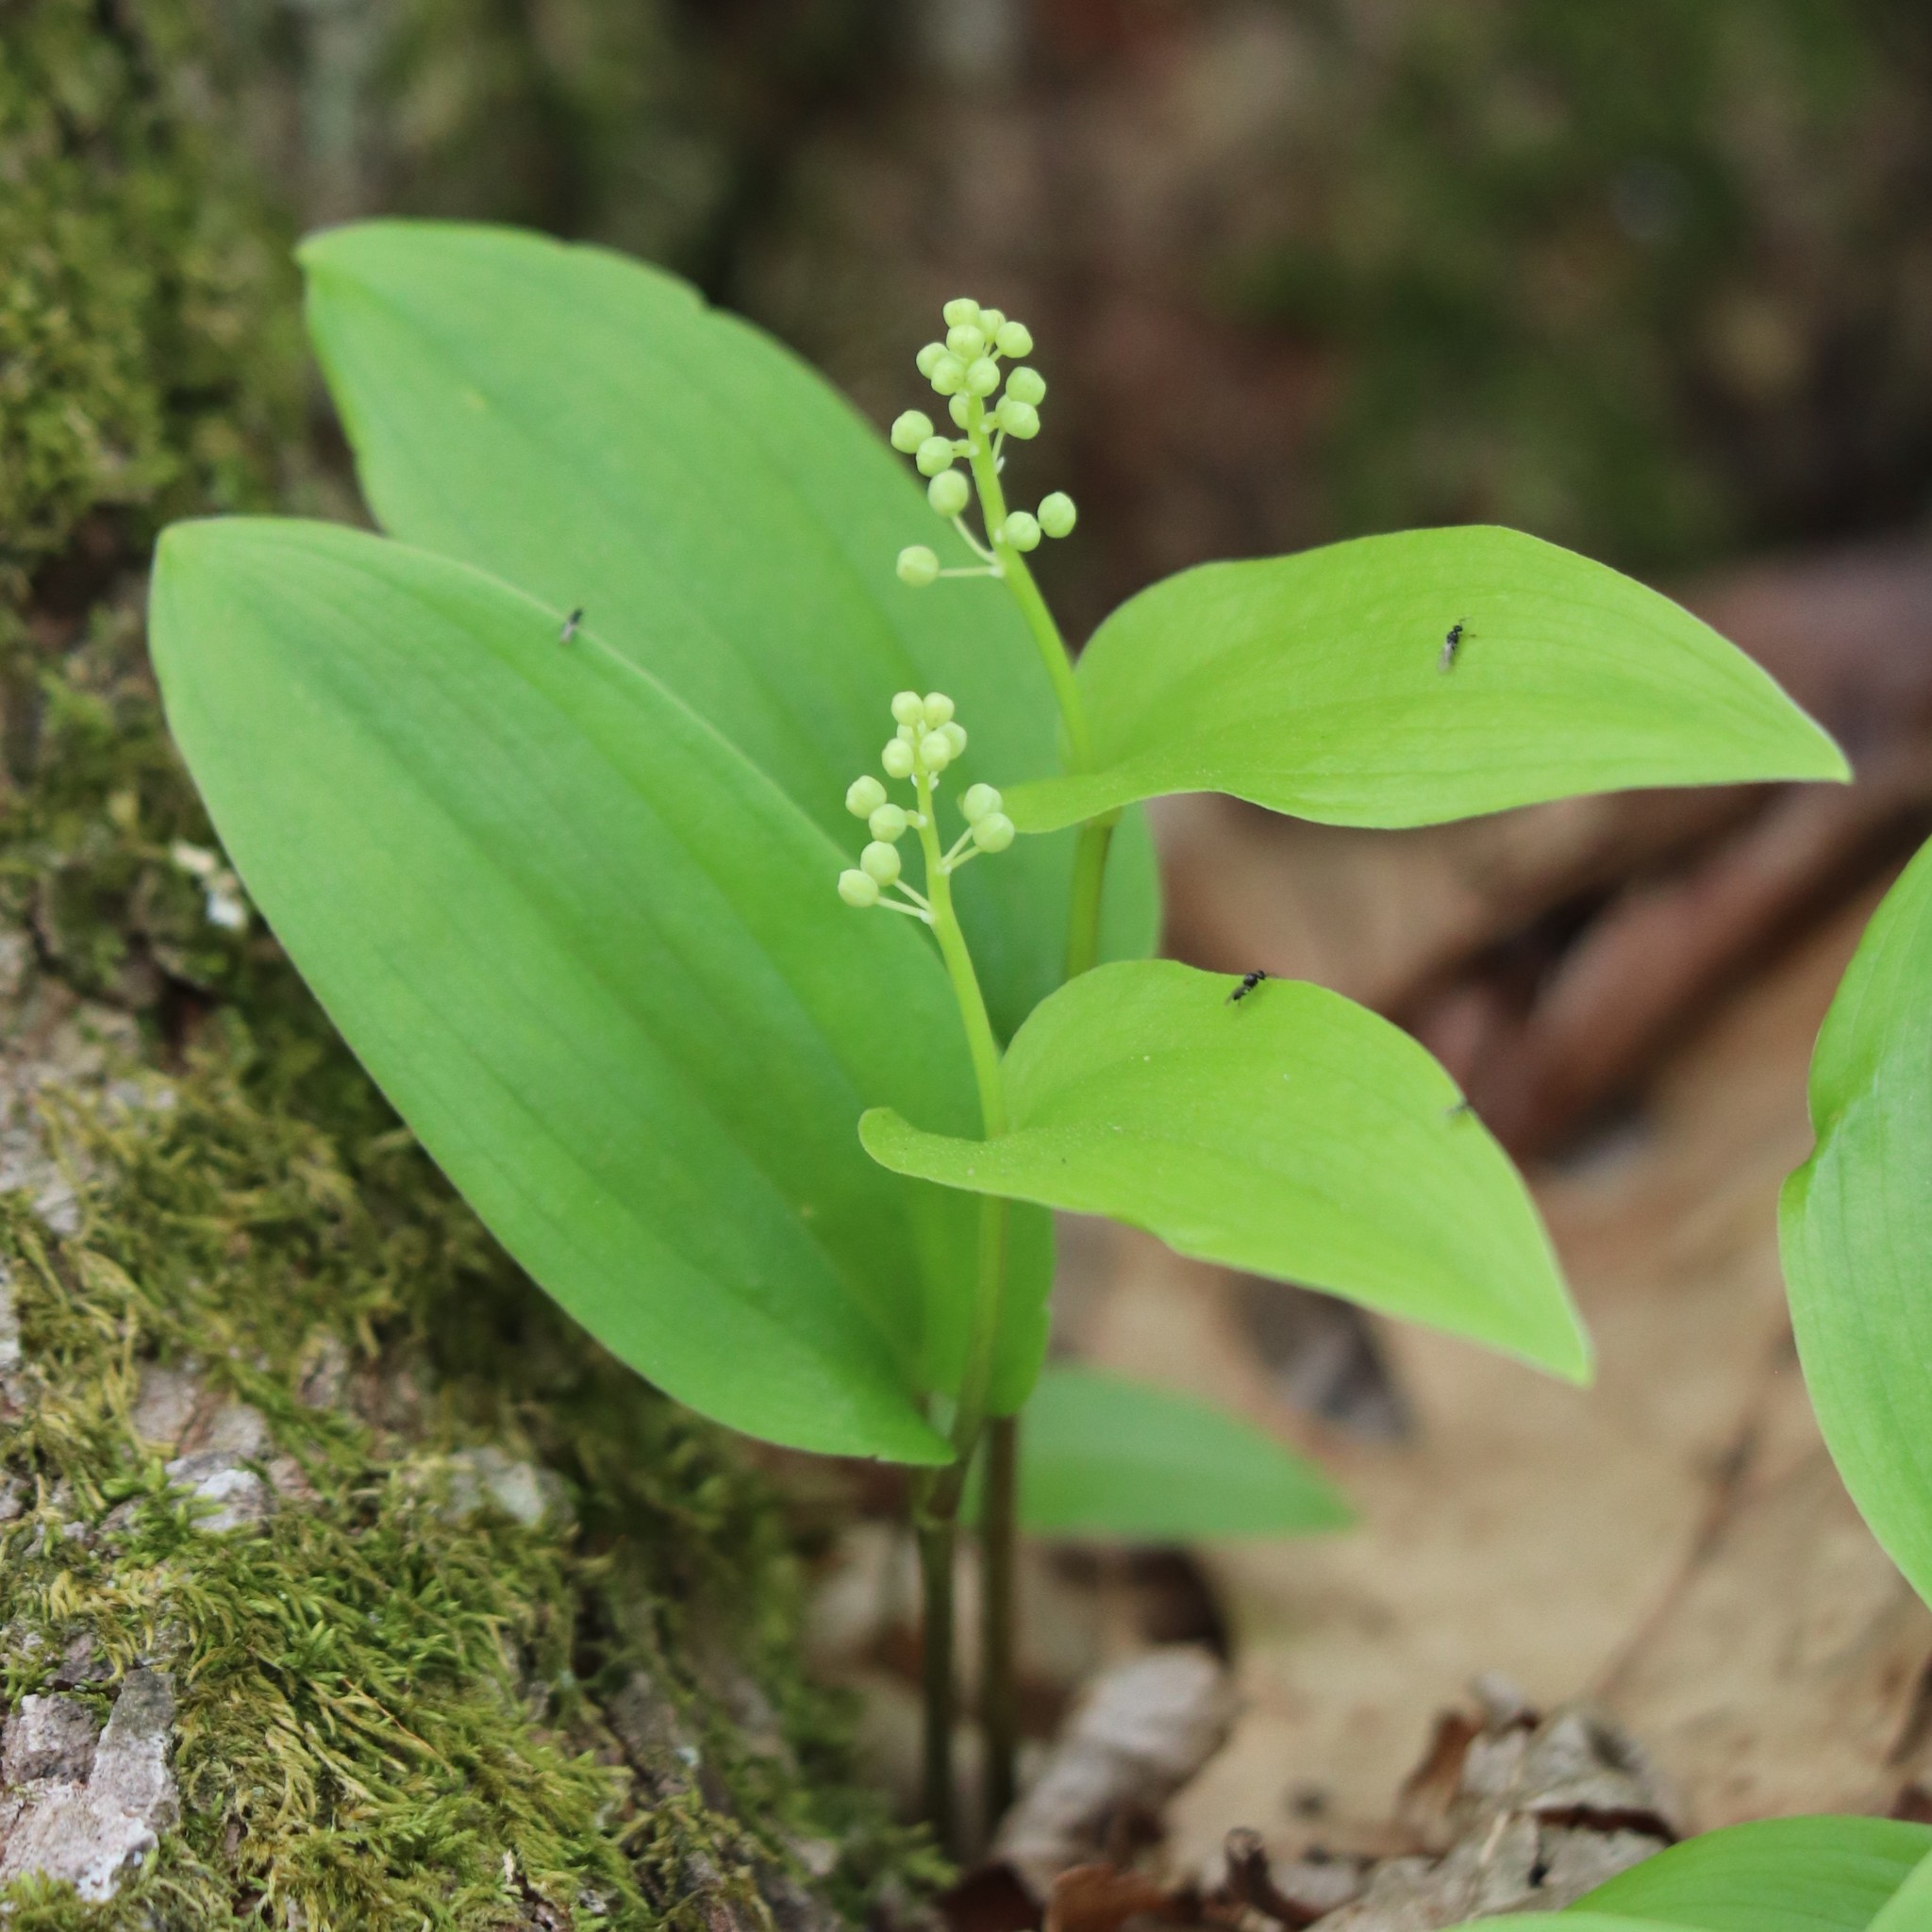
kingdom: Plantae
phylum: Tracheophyta
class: Liliopsida
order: Asparagales
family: Asparagaceae
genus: Maianthemum
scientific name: Maianthemum canadense
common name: False lily-of-the-valley
